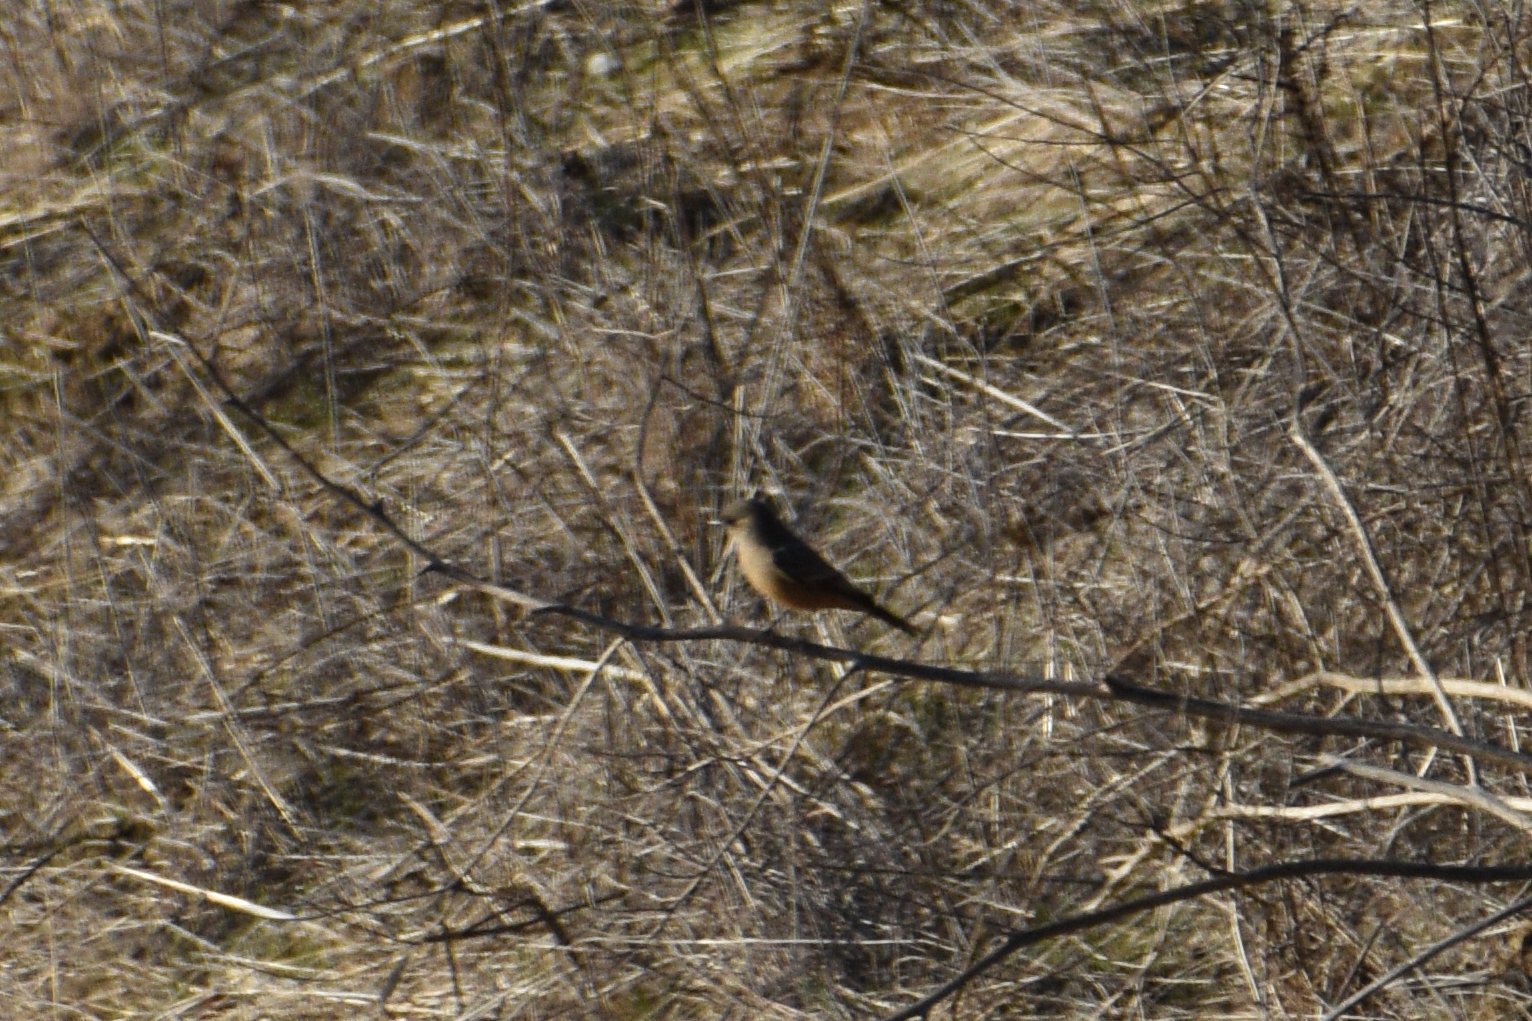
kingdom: Animalia
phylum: Chordata
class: Aves
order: Passeriformes
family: Tyrannidae
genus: Sayornis
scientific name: Sayornis saya
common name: Say's phoebe
